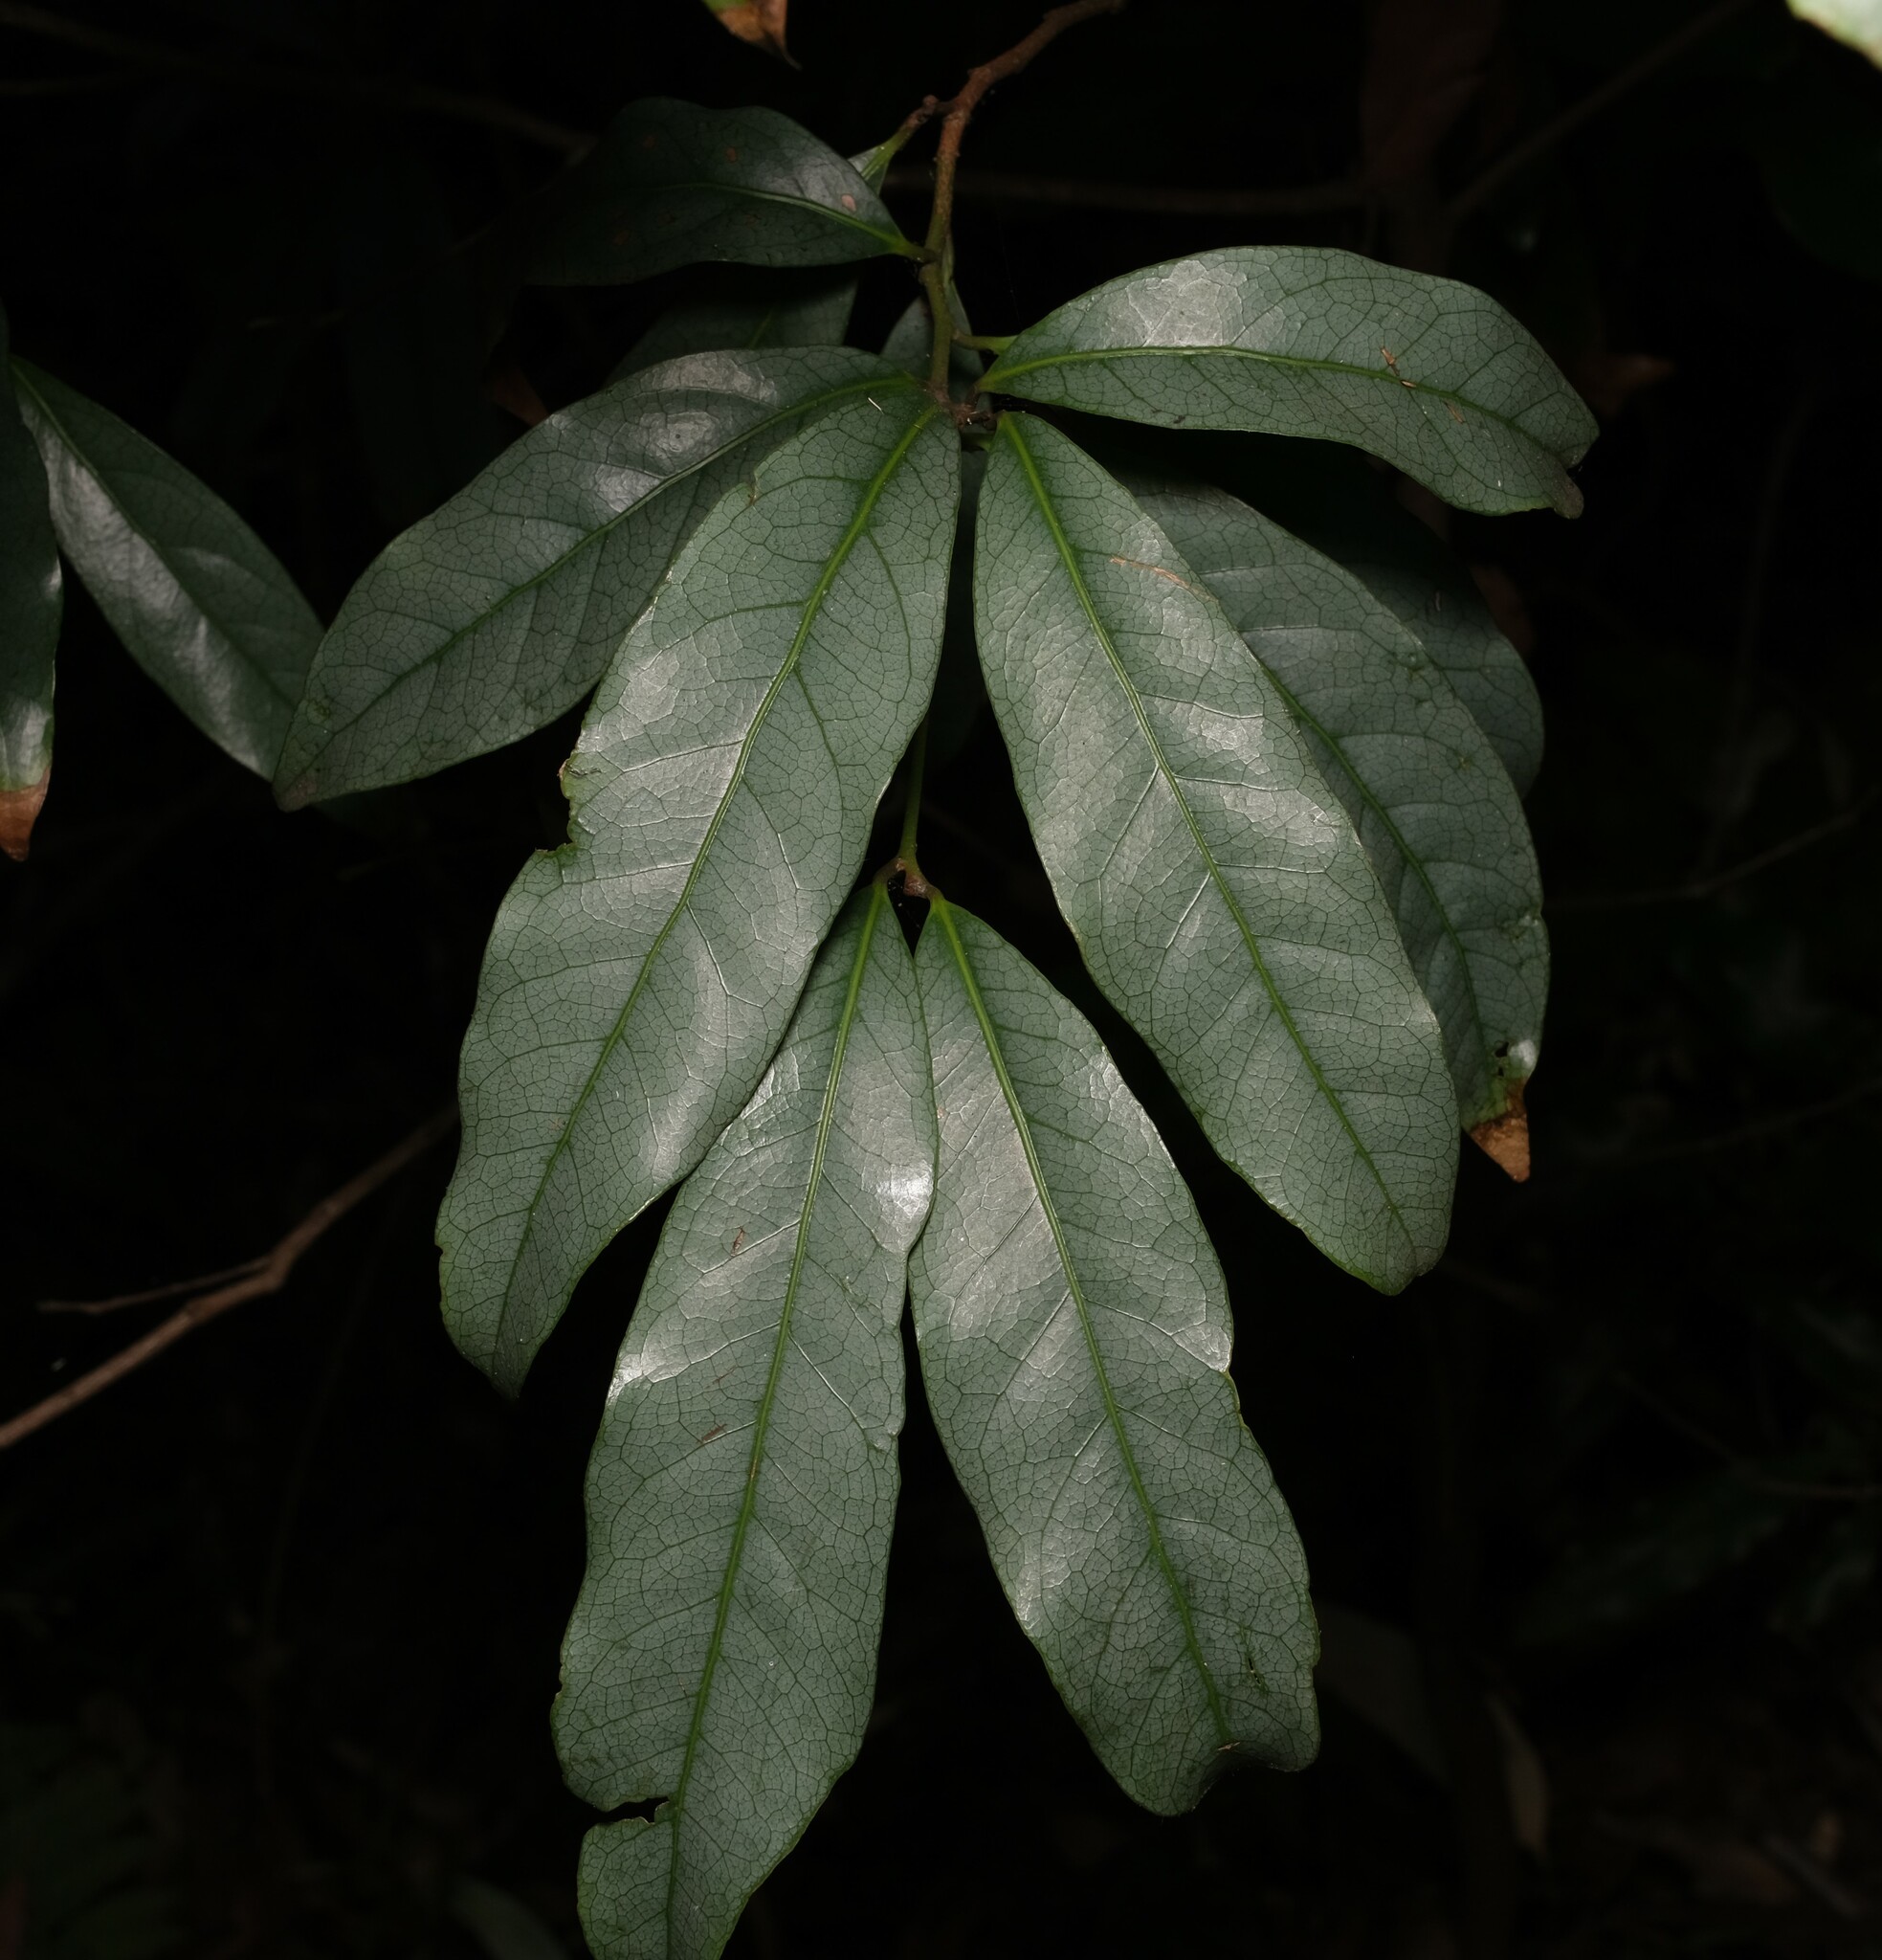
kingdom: Plantae
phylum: Tracheophyta
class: Magnoliopsida
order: Laurales
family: Lauraceae
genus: Beilschmiedia
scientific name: Beilschmiedia elliptica
